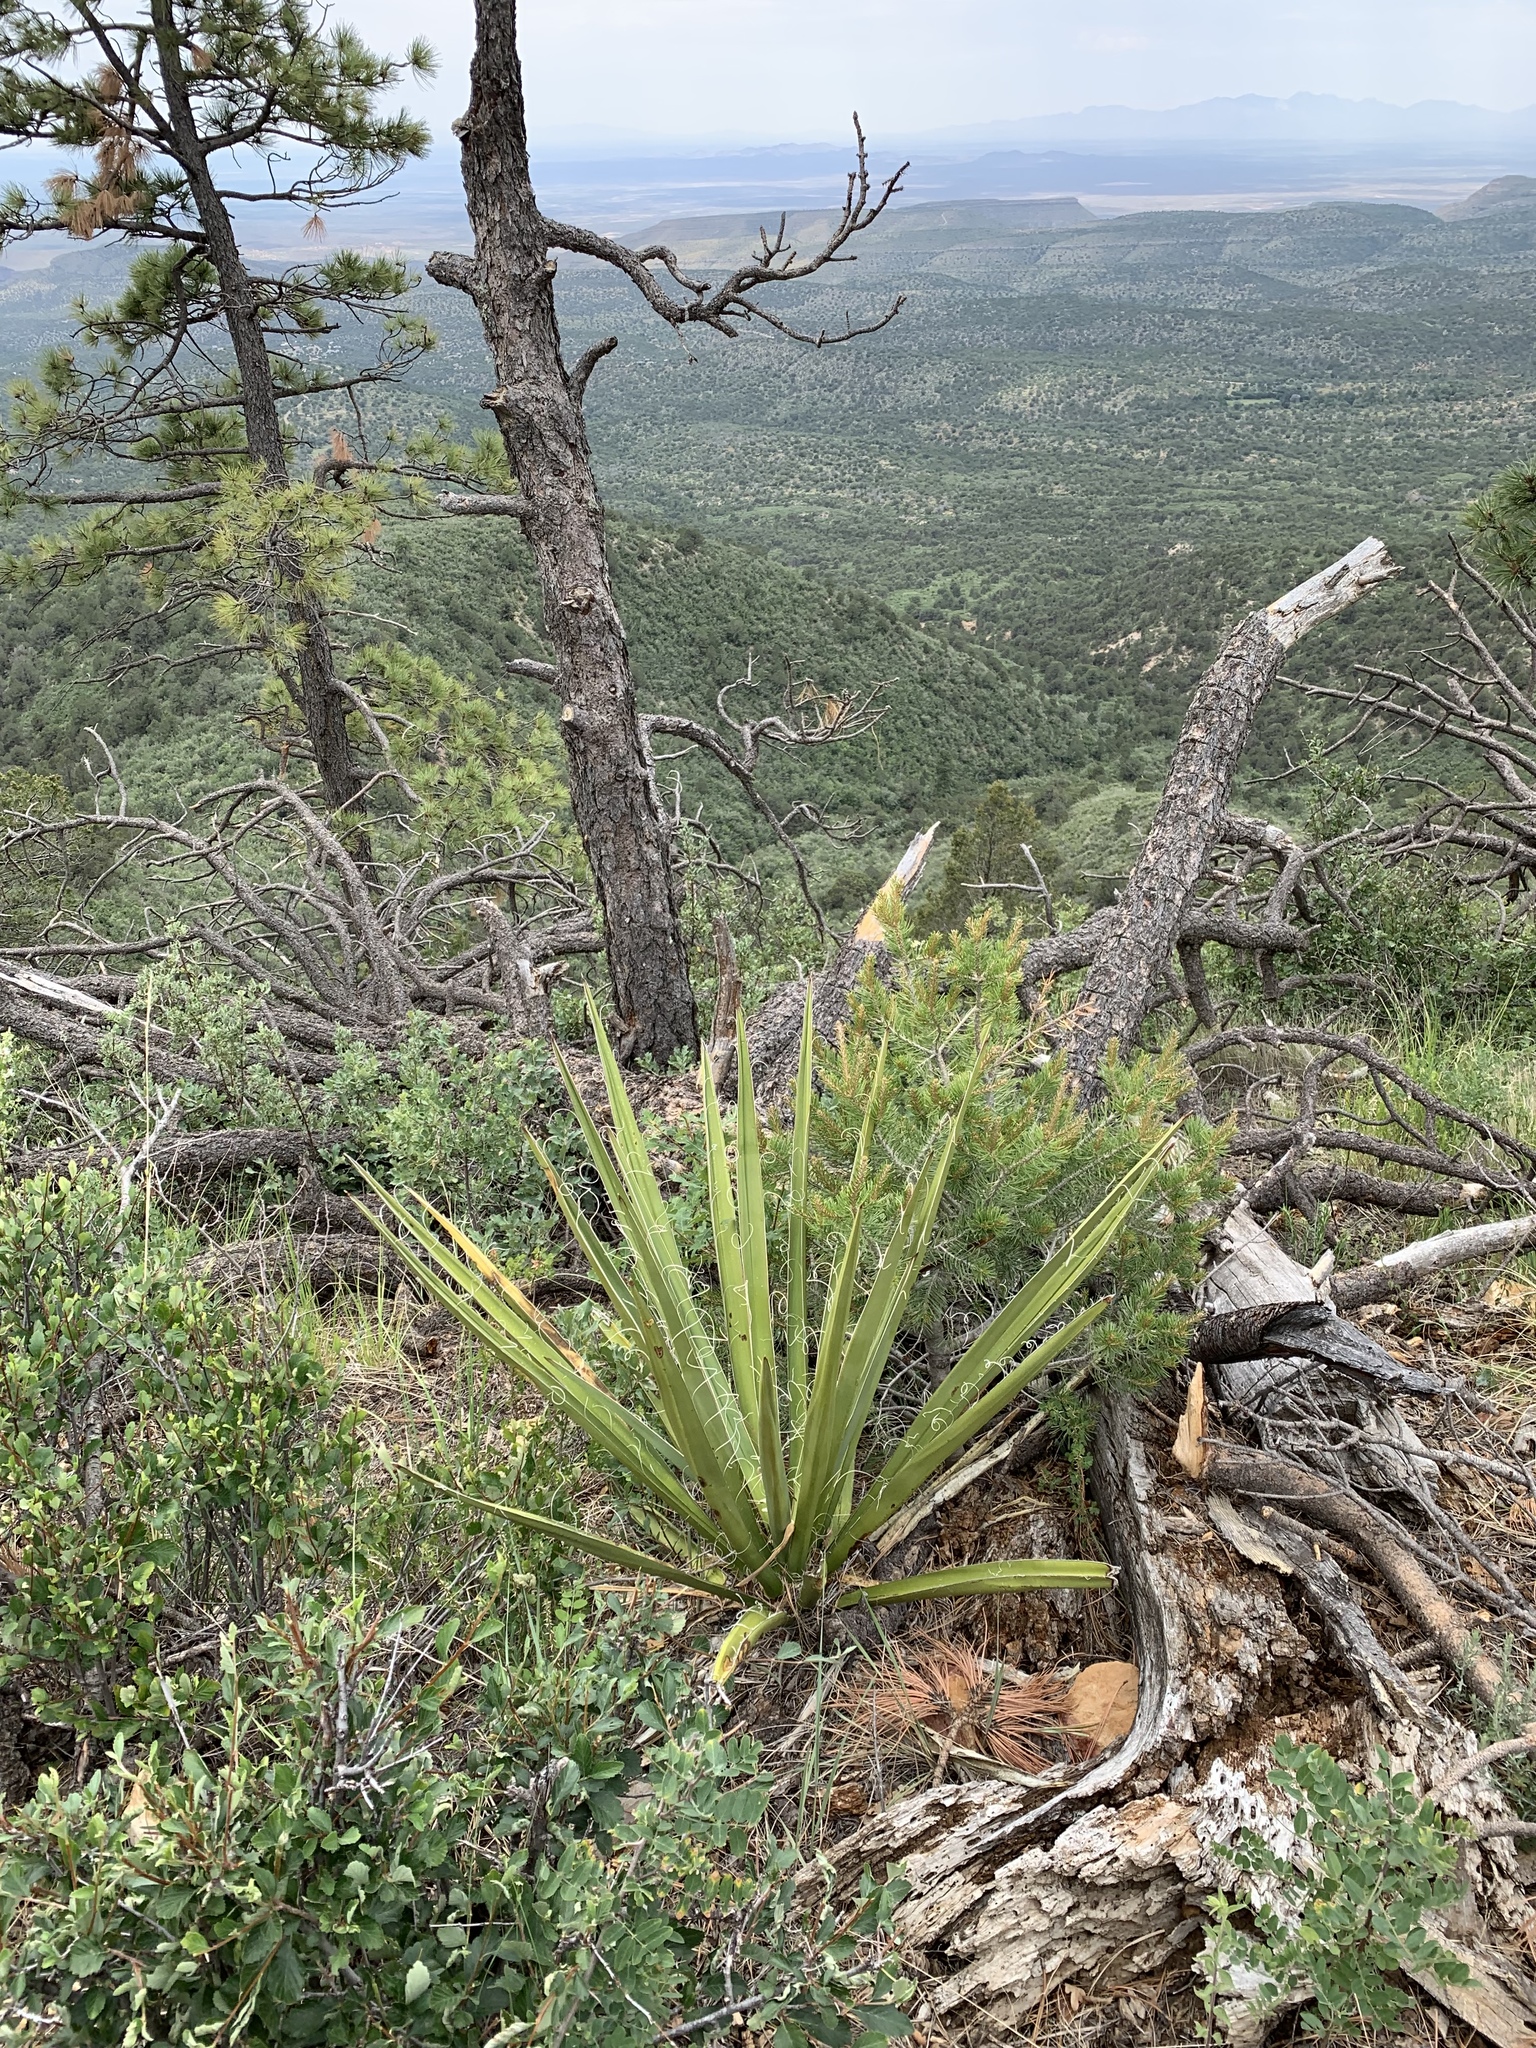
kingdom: Plantae
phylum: Tracheophyta
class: Liliopsida
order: Asparagales
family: Asparagaceae
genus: Yucca
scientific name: Yucca baccata
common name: Banana yucca
